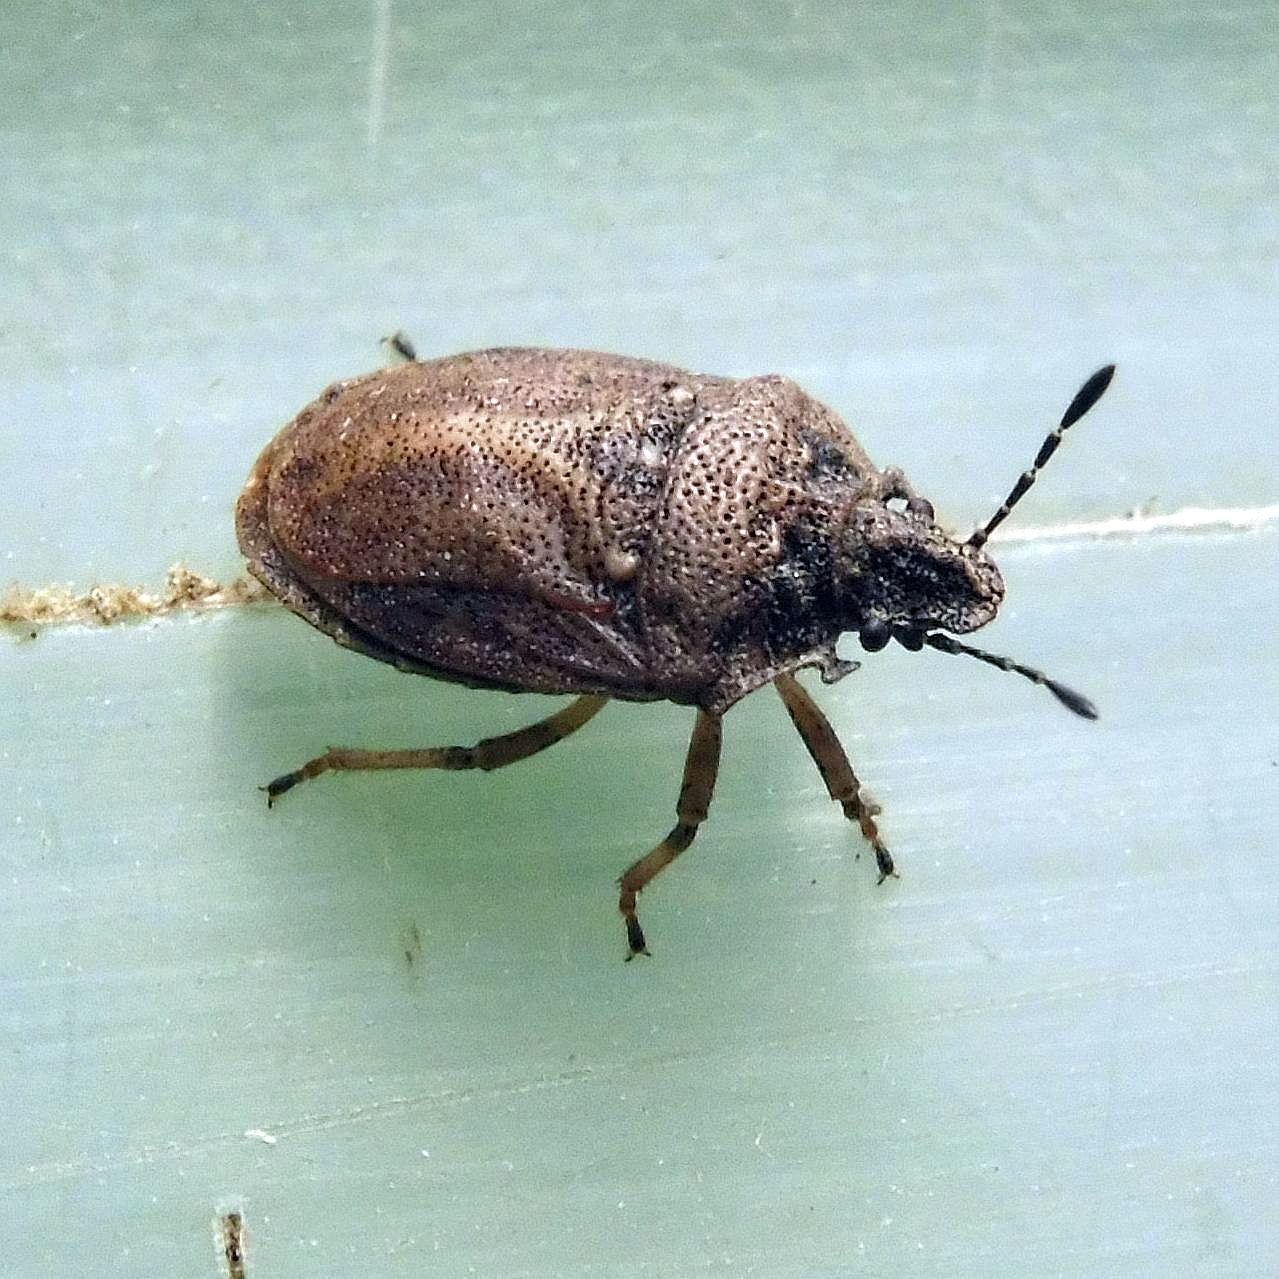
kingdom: Animalia
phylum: Arthropoda
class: Insecta
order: Hemiptera
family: Pentatomidae
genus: Podops
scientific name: Podops inunctus
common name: Turtle bug
